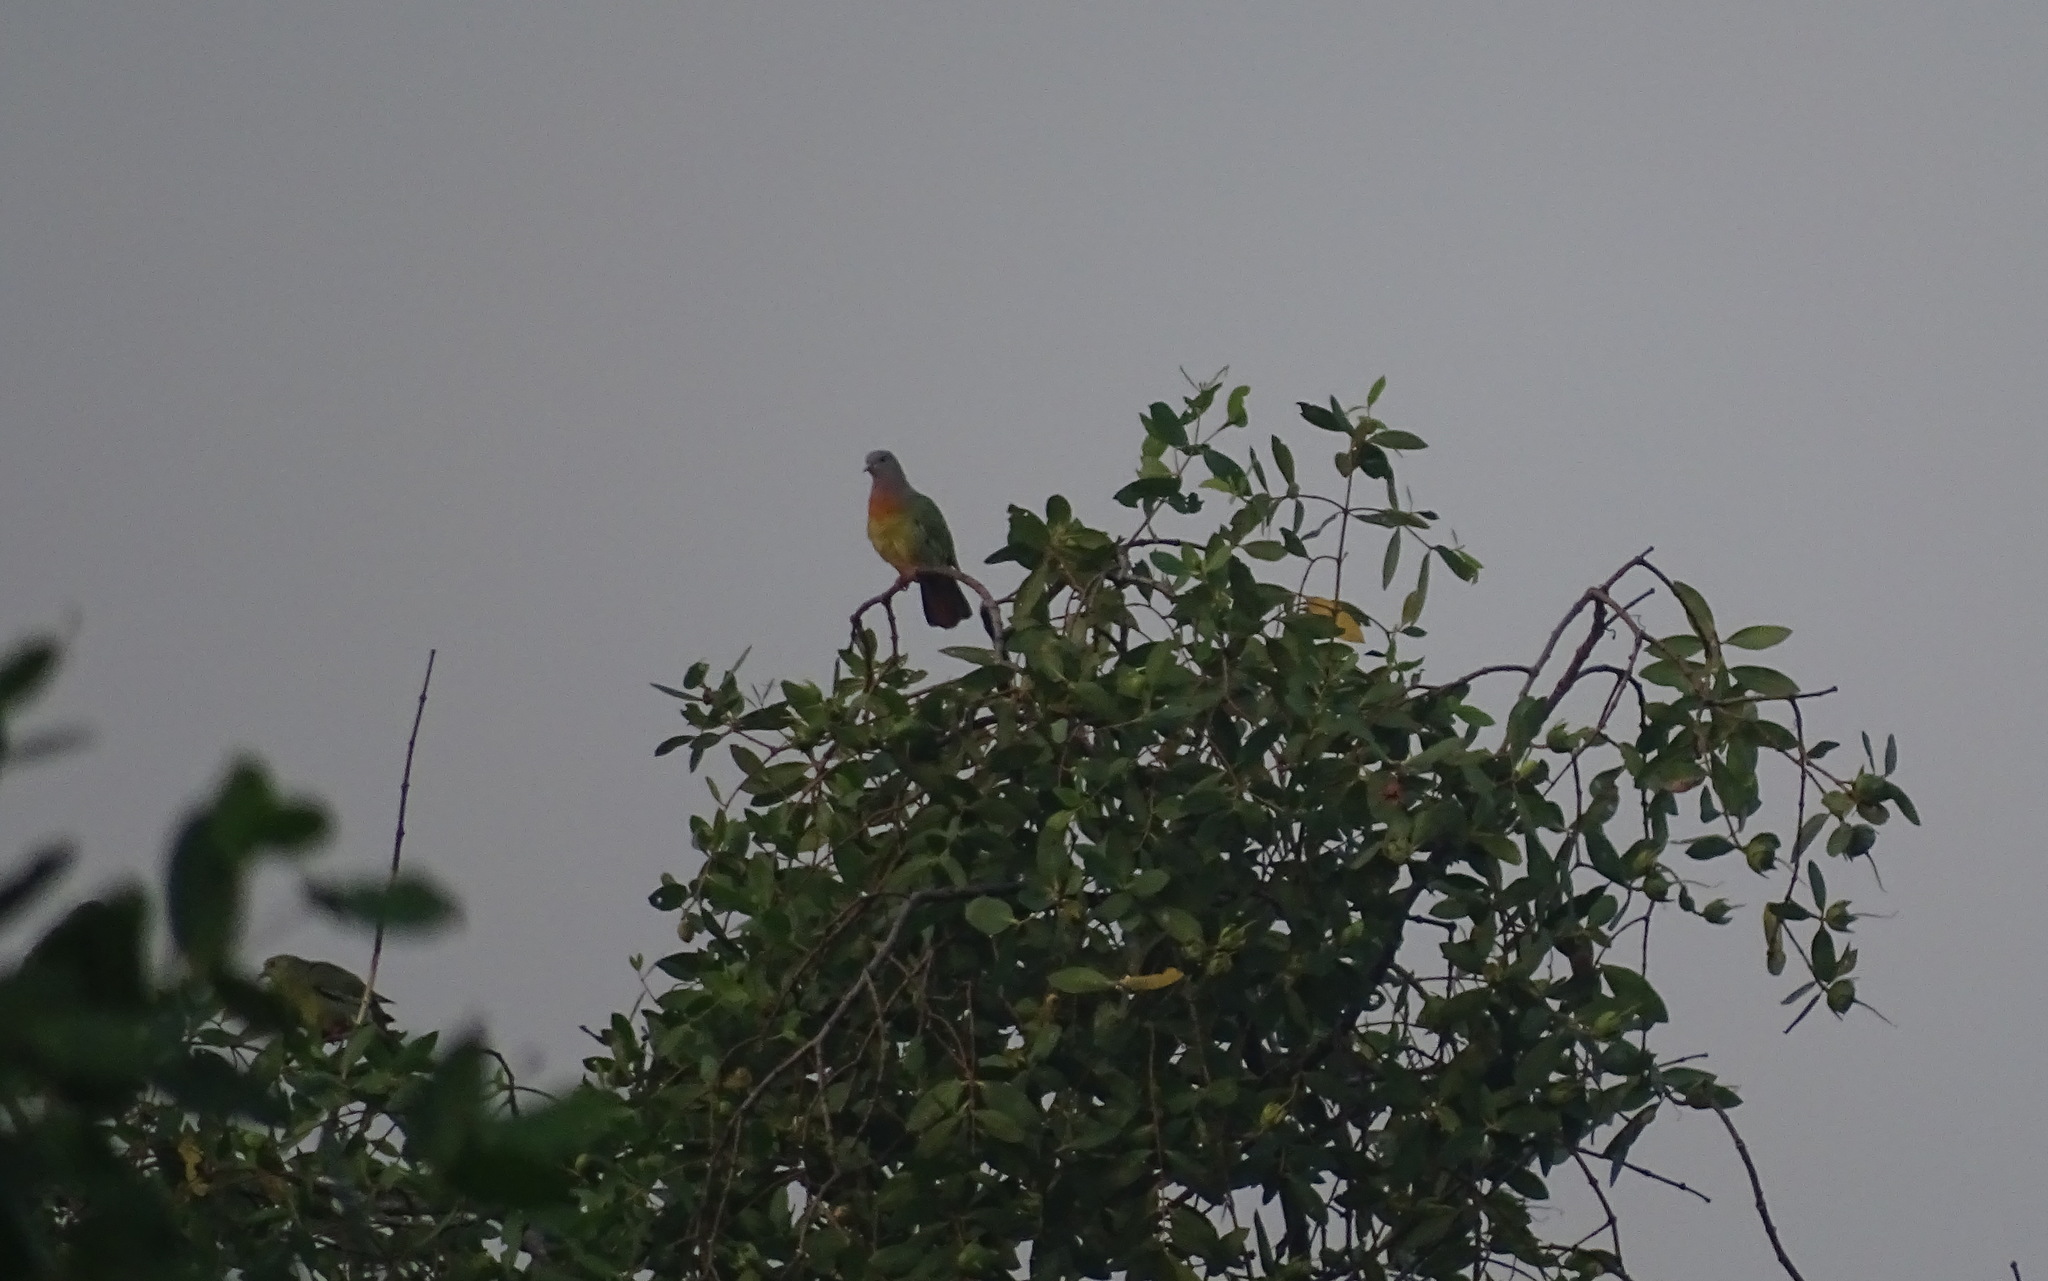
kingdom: Animalia
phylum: Chordata
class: Aves
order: Columbiformes
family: Columbidae
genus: Treron
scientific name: Treron vernans
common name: Pink-necked green pigeon
